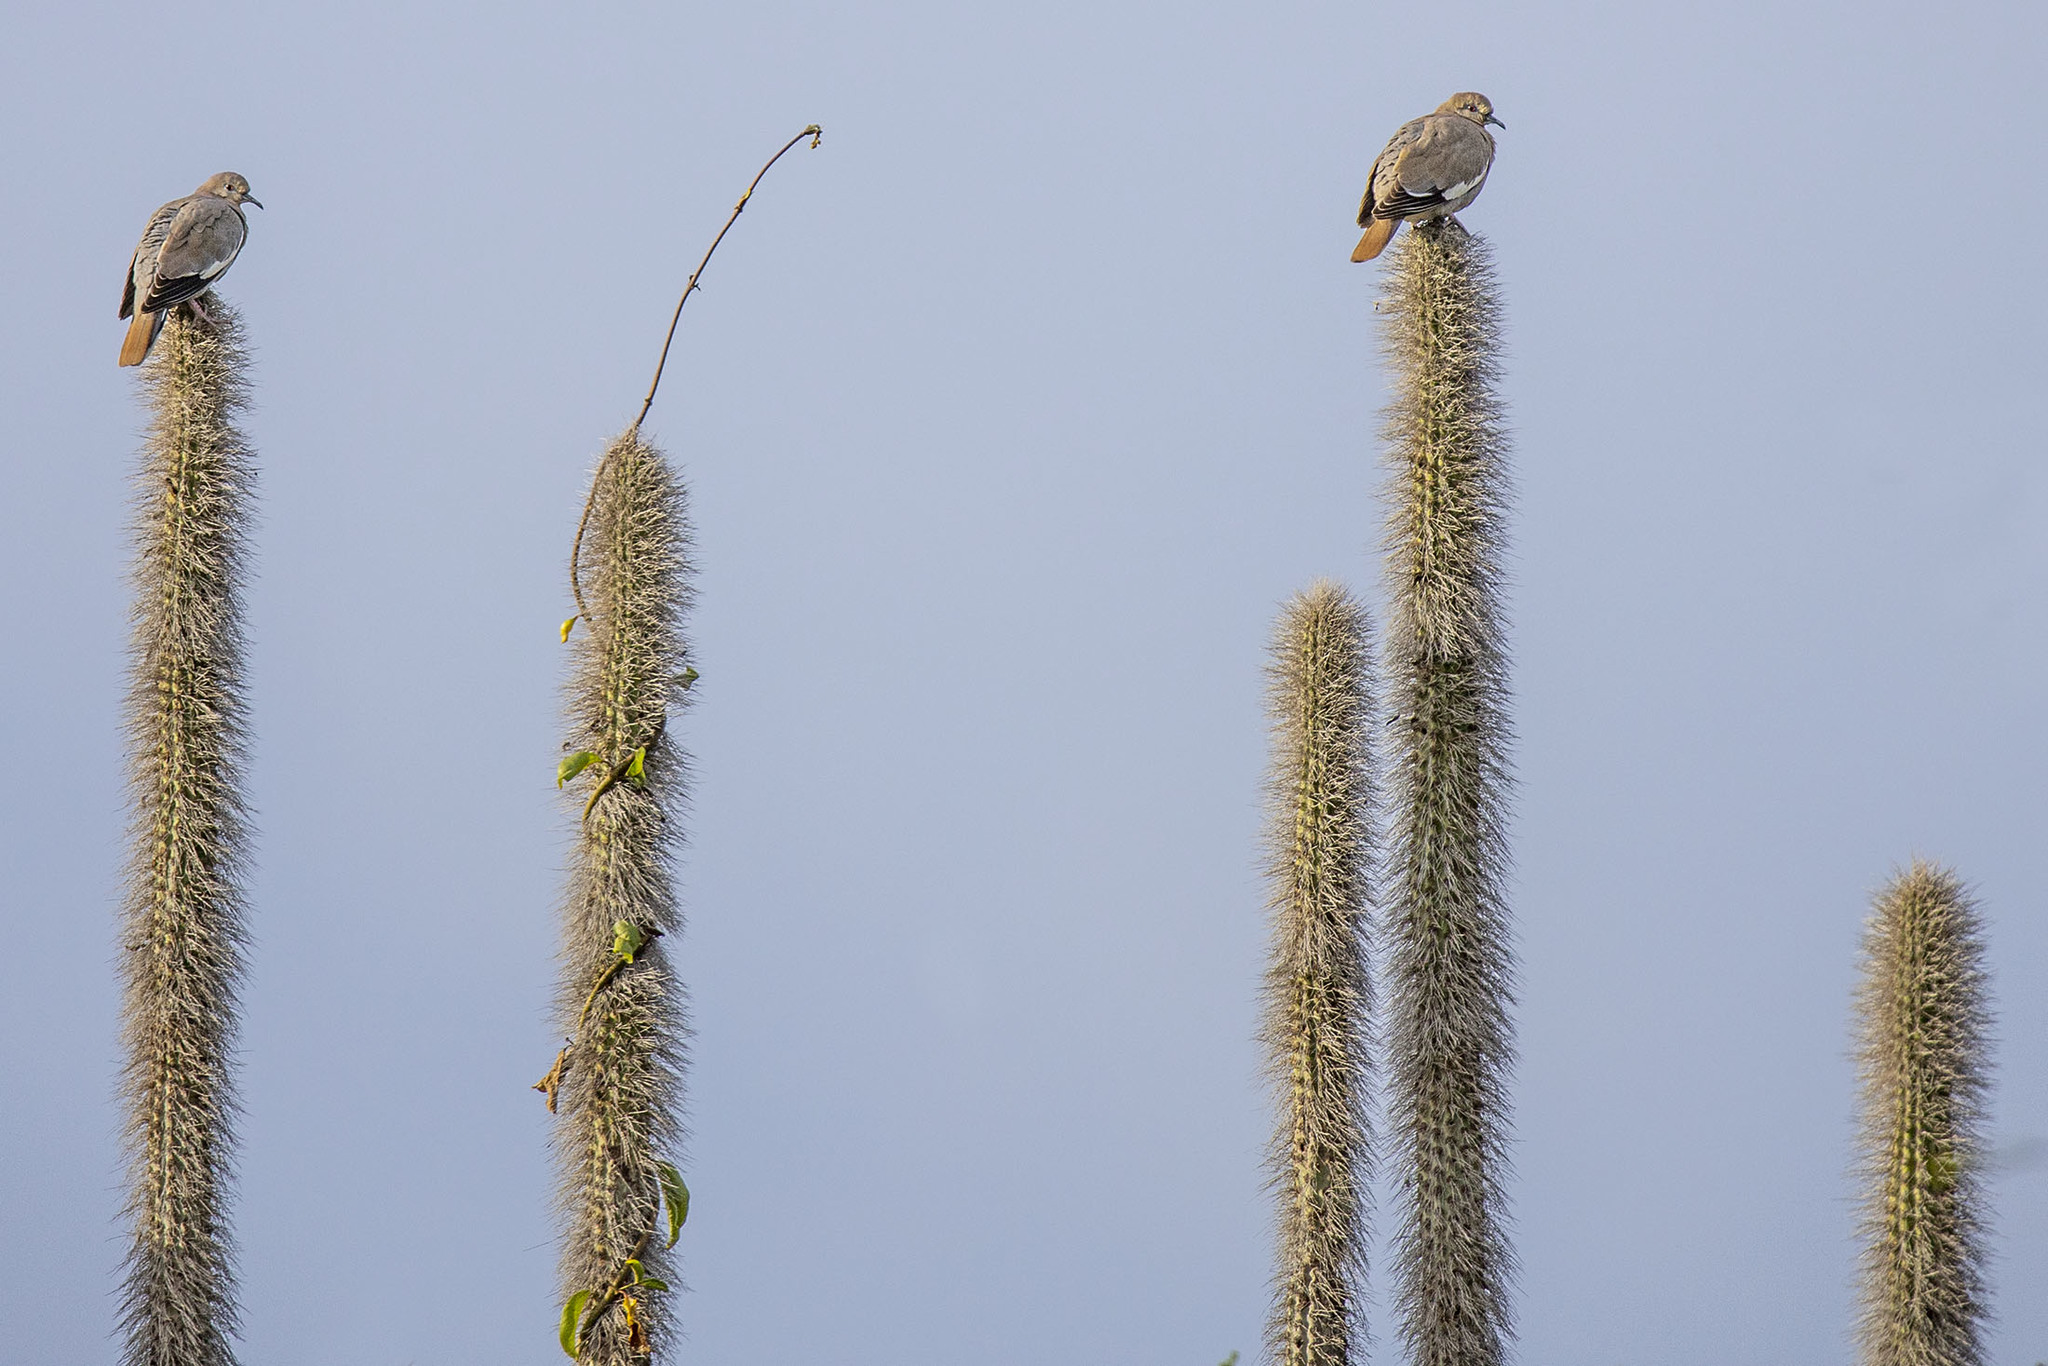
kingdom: Plantae
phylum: Tracheophyta
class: Magnoliopsida
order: Caryophyllales
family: Cactaceae
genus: Pachycereus
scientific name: Pachycereus schottii
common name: Senita cactus
